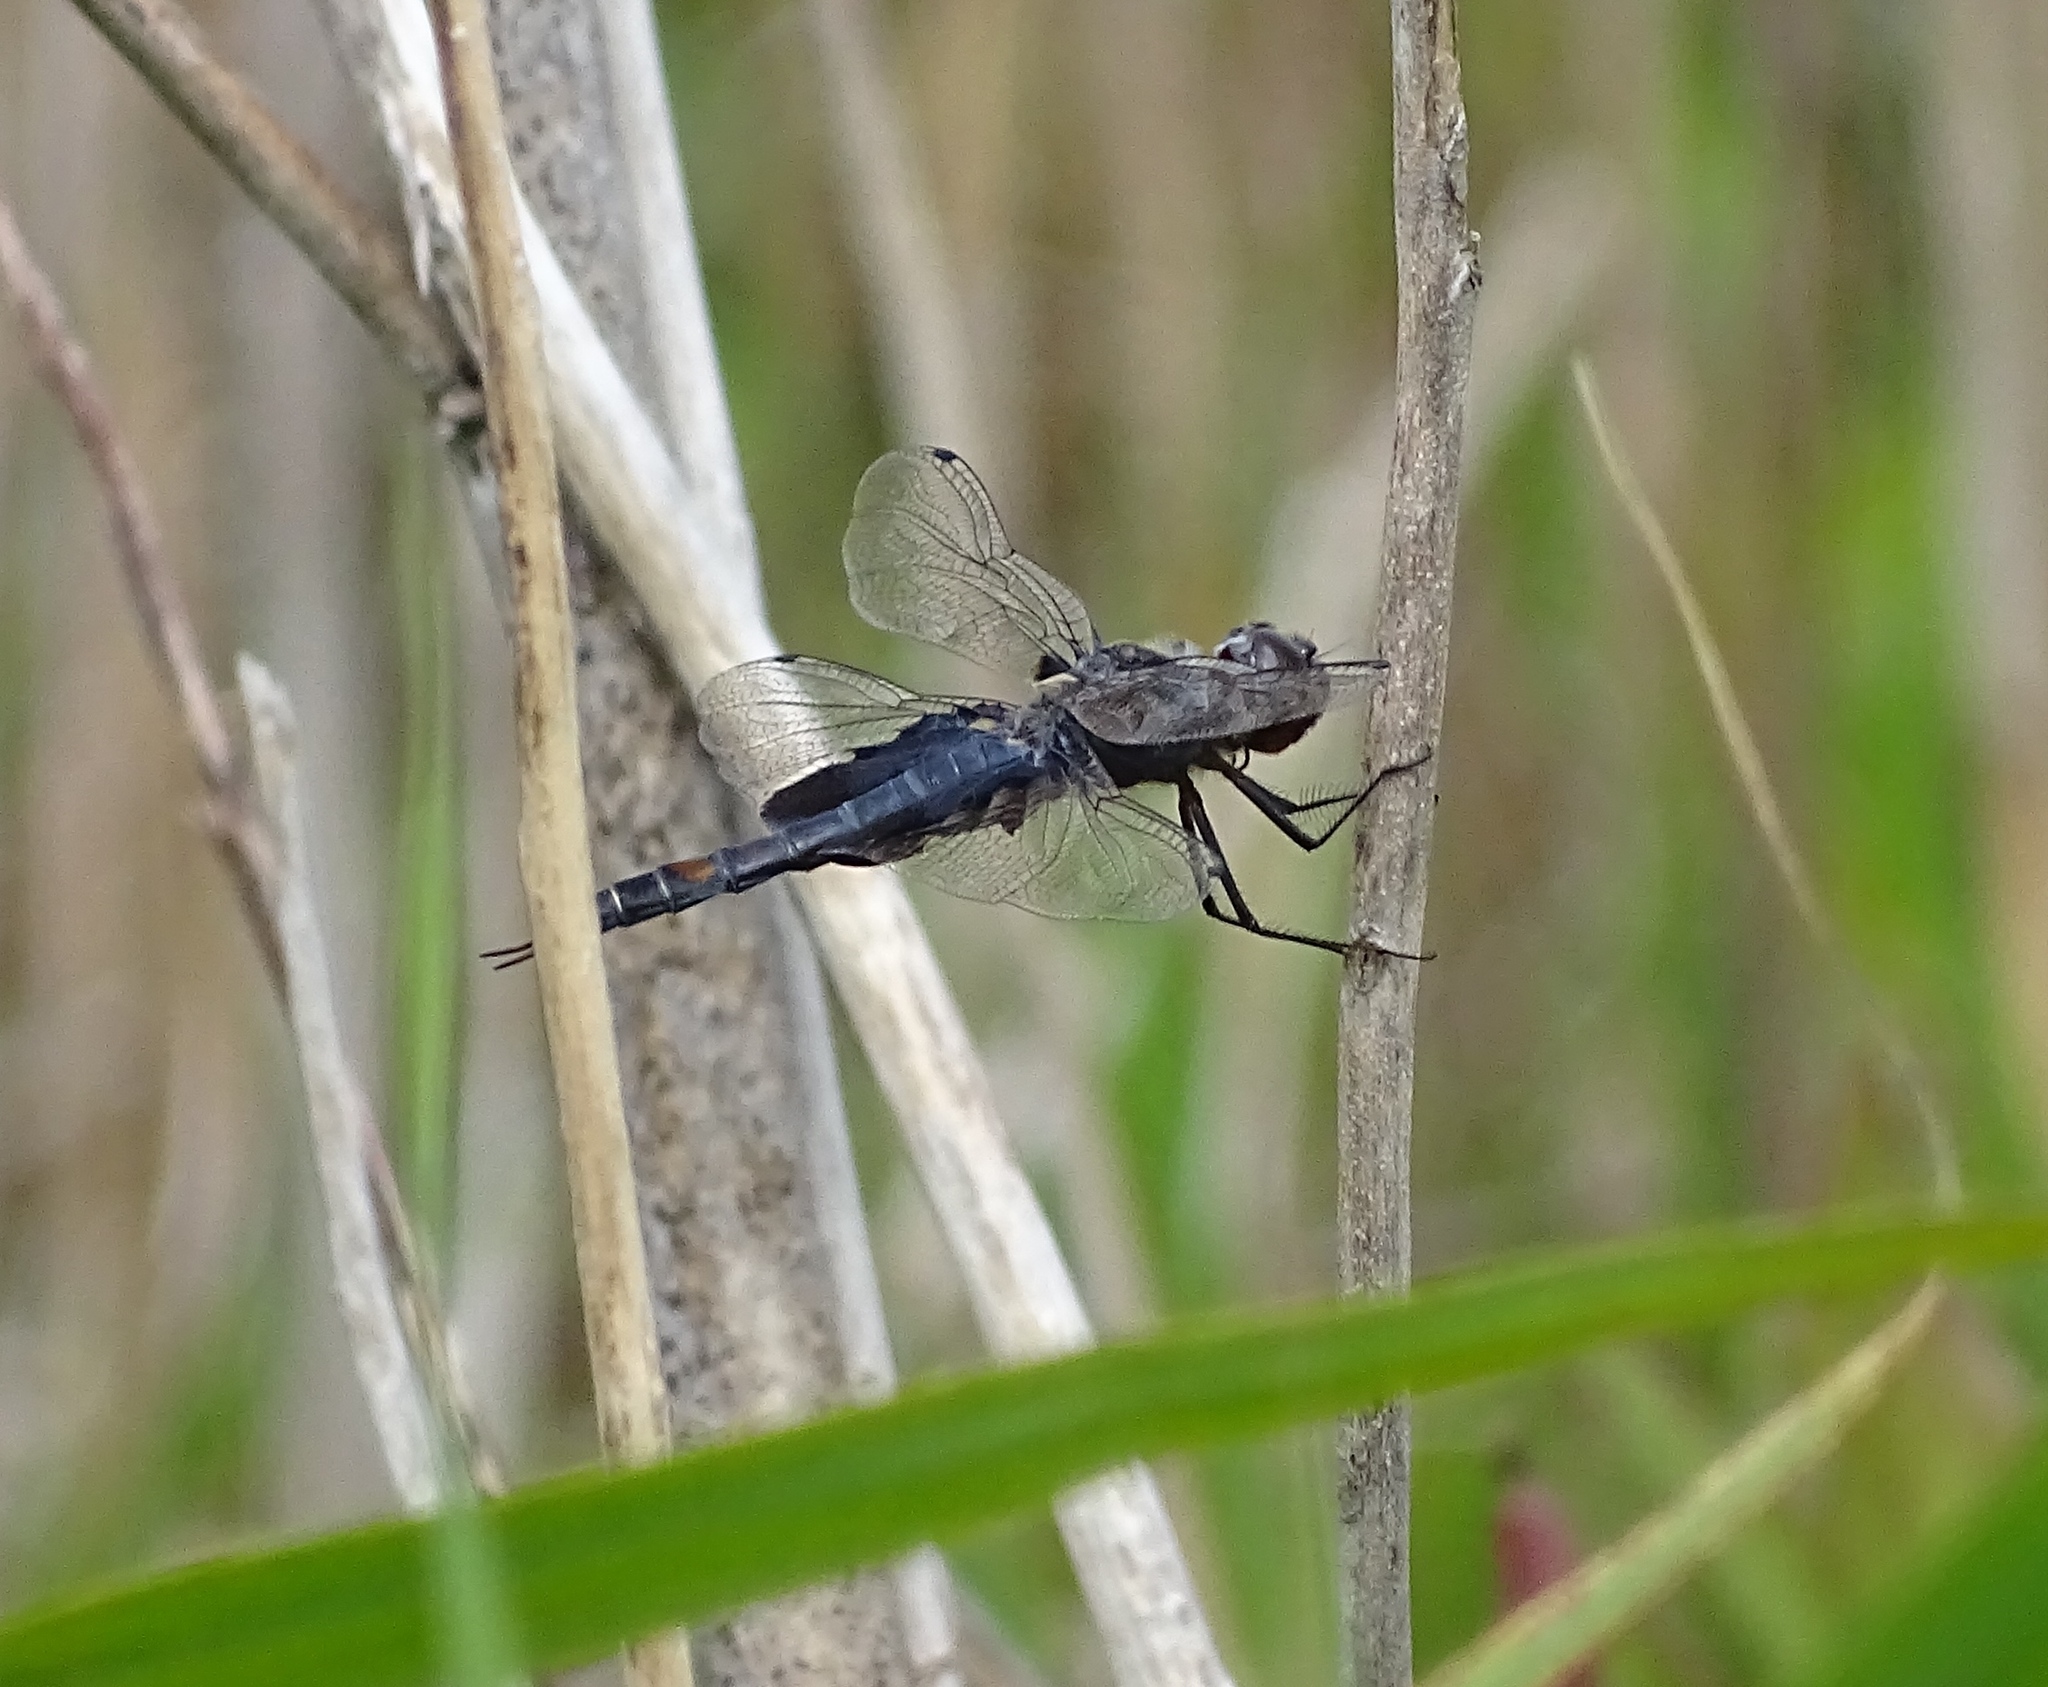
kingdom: Animalia
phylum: Arthropoda
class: Insecta
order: Odonata
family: Libellulidae
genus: Tramea
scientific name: Tramea lacerata
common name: Black saddlebags
